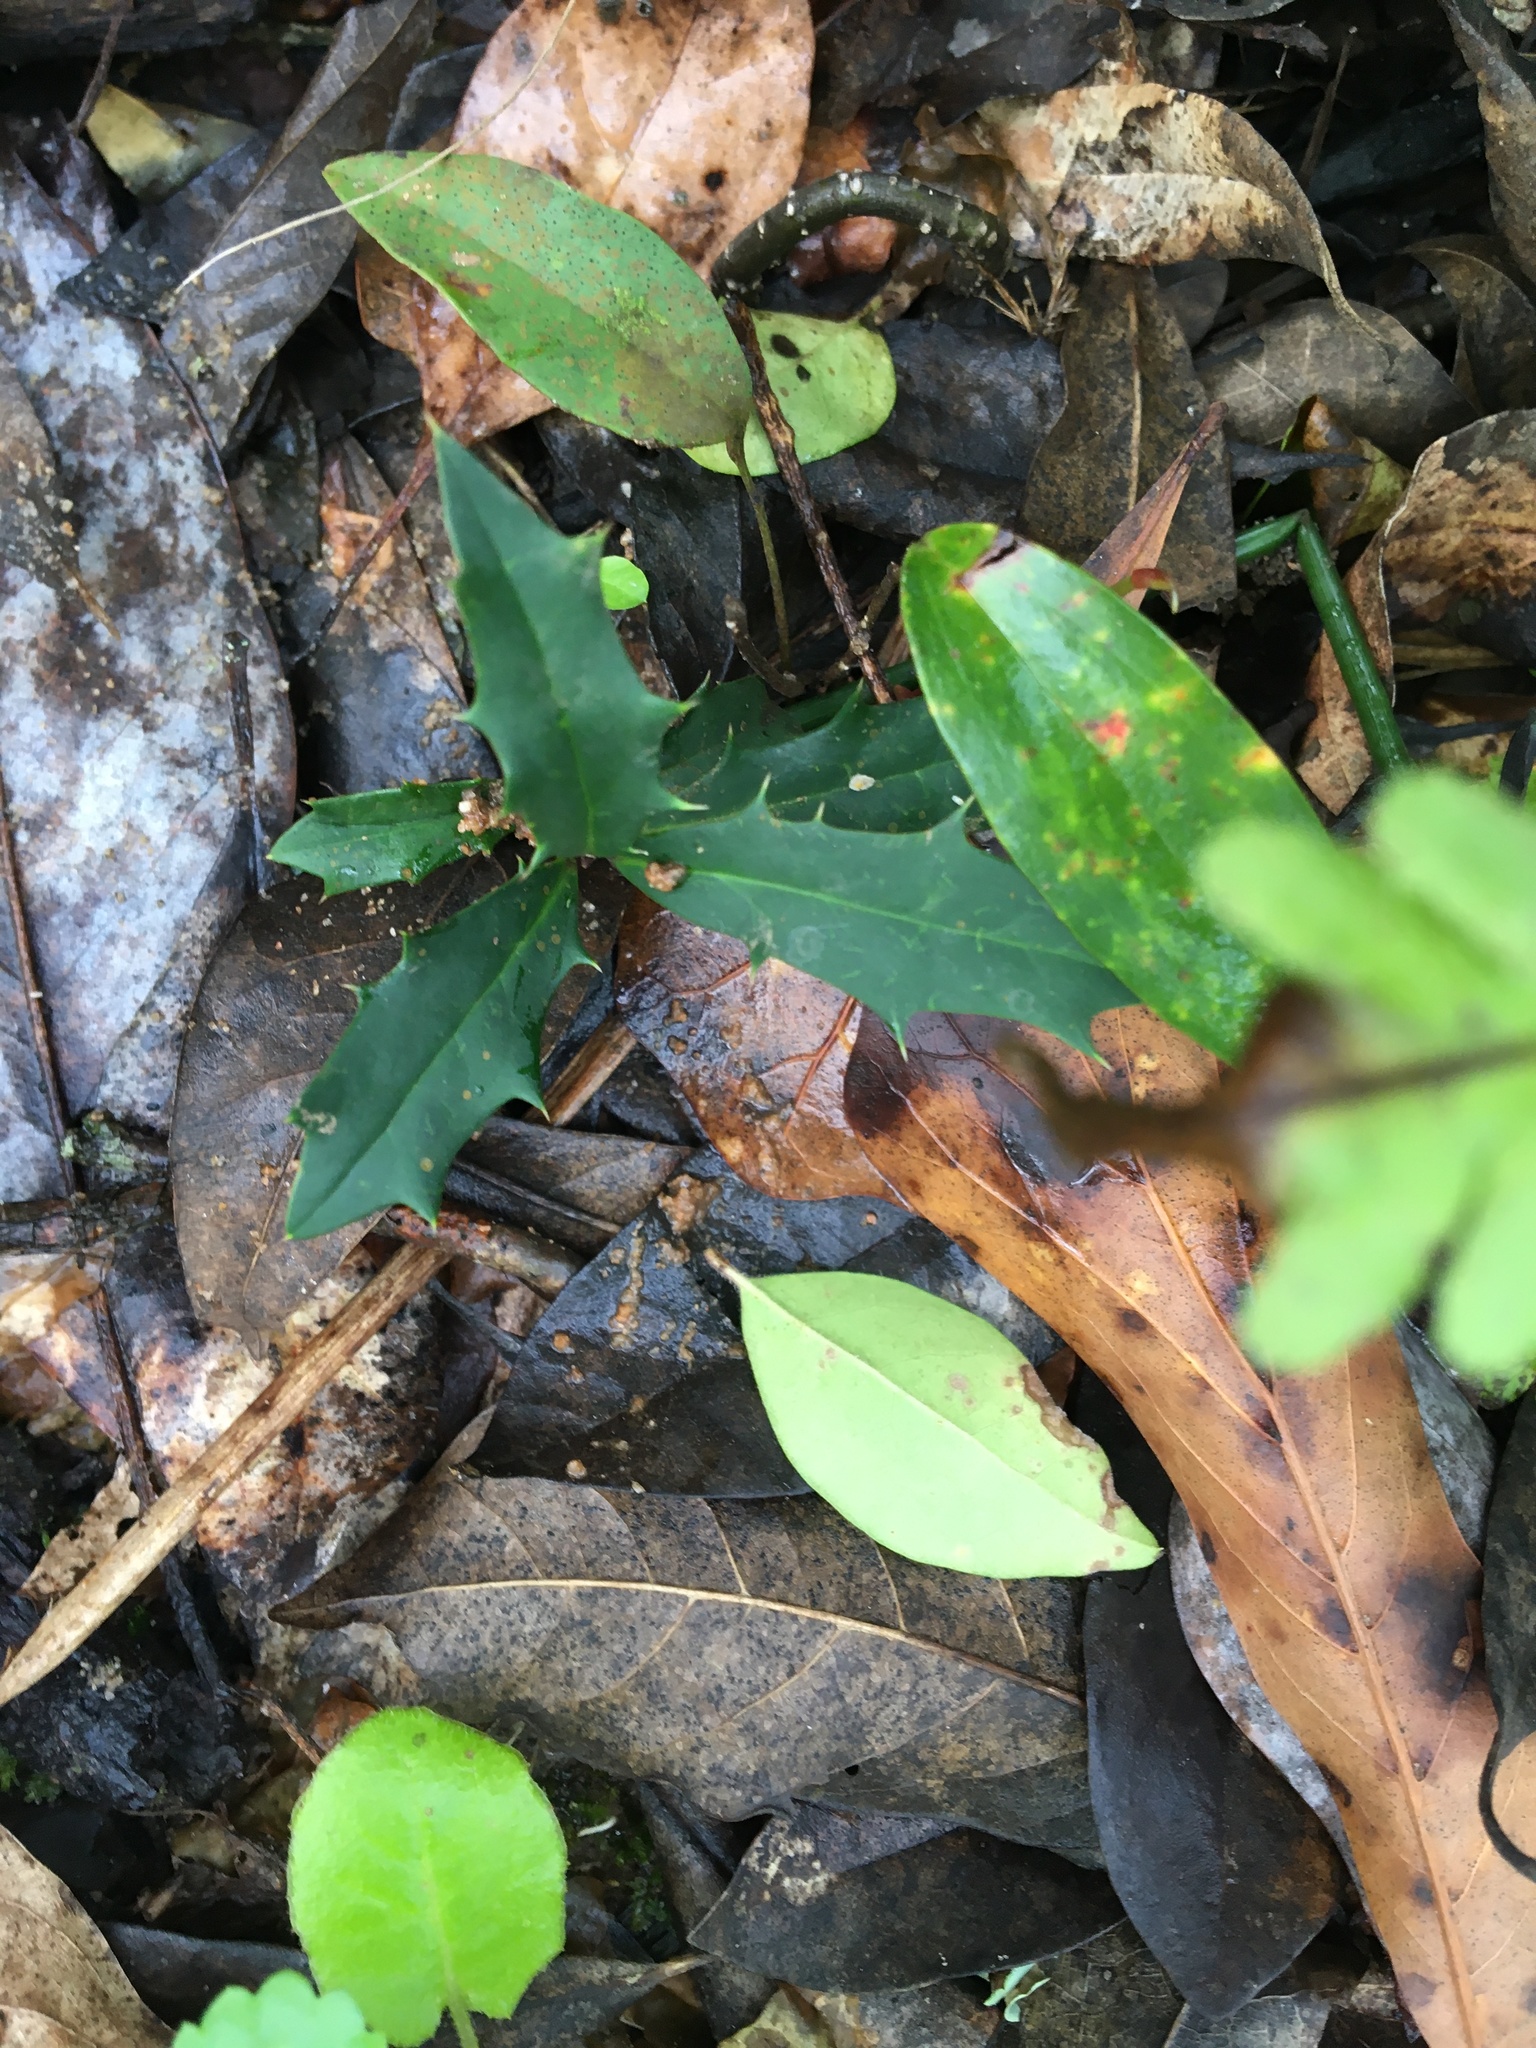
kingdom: Plantae
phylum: Tracheophyta
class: Magnoliopsida
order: Aquifoliales
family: Aquifoliaceae
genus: Ilex
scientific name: Ilex opaca
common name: American holly
